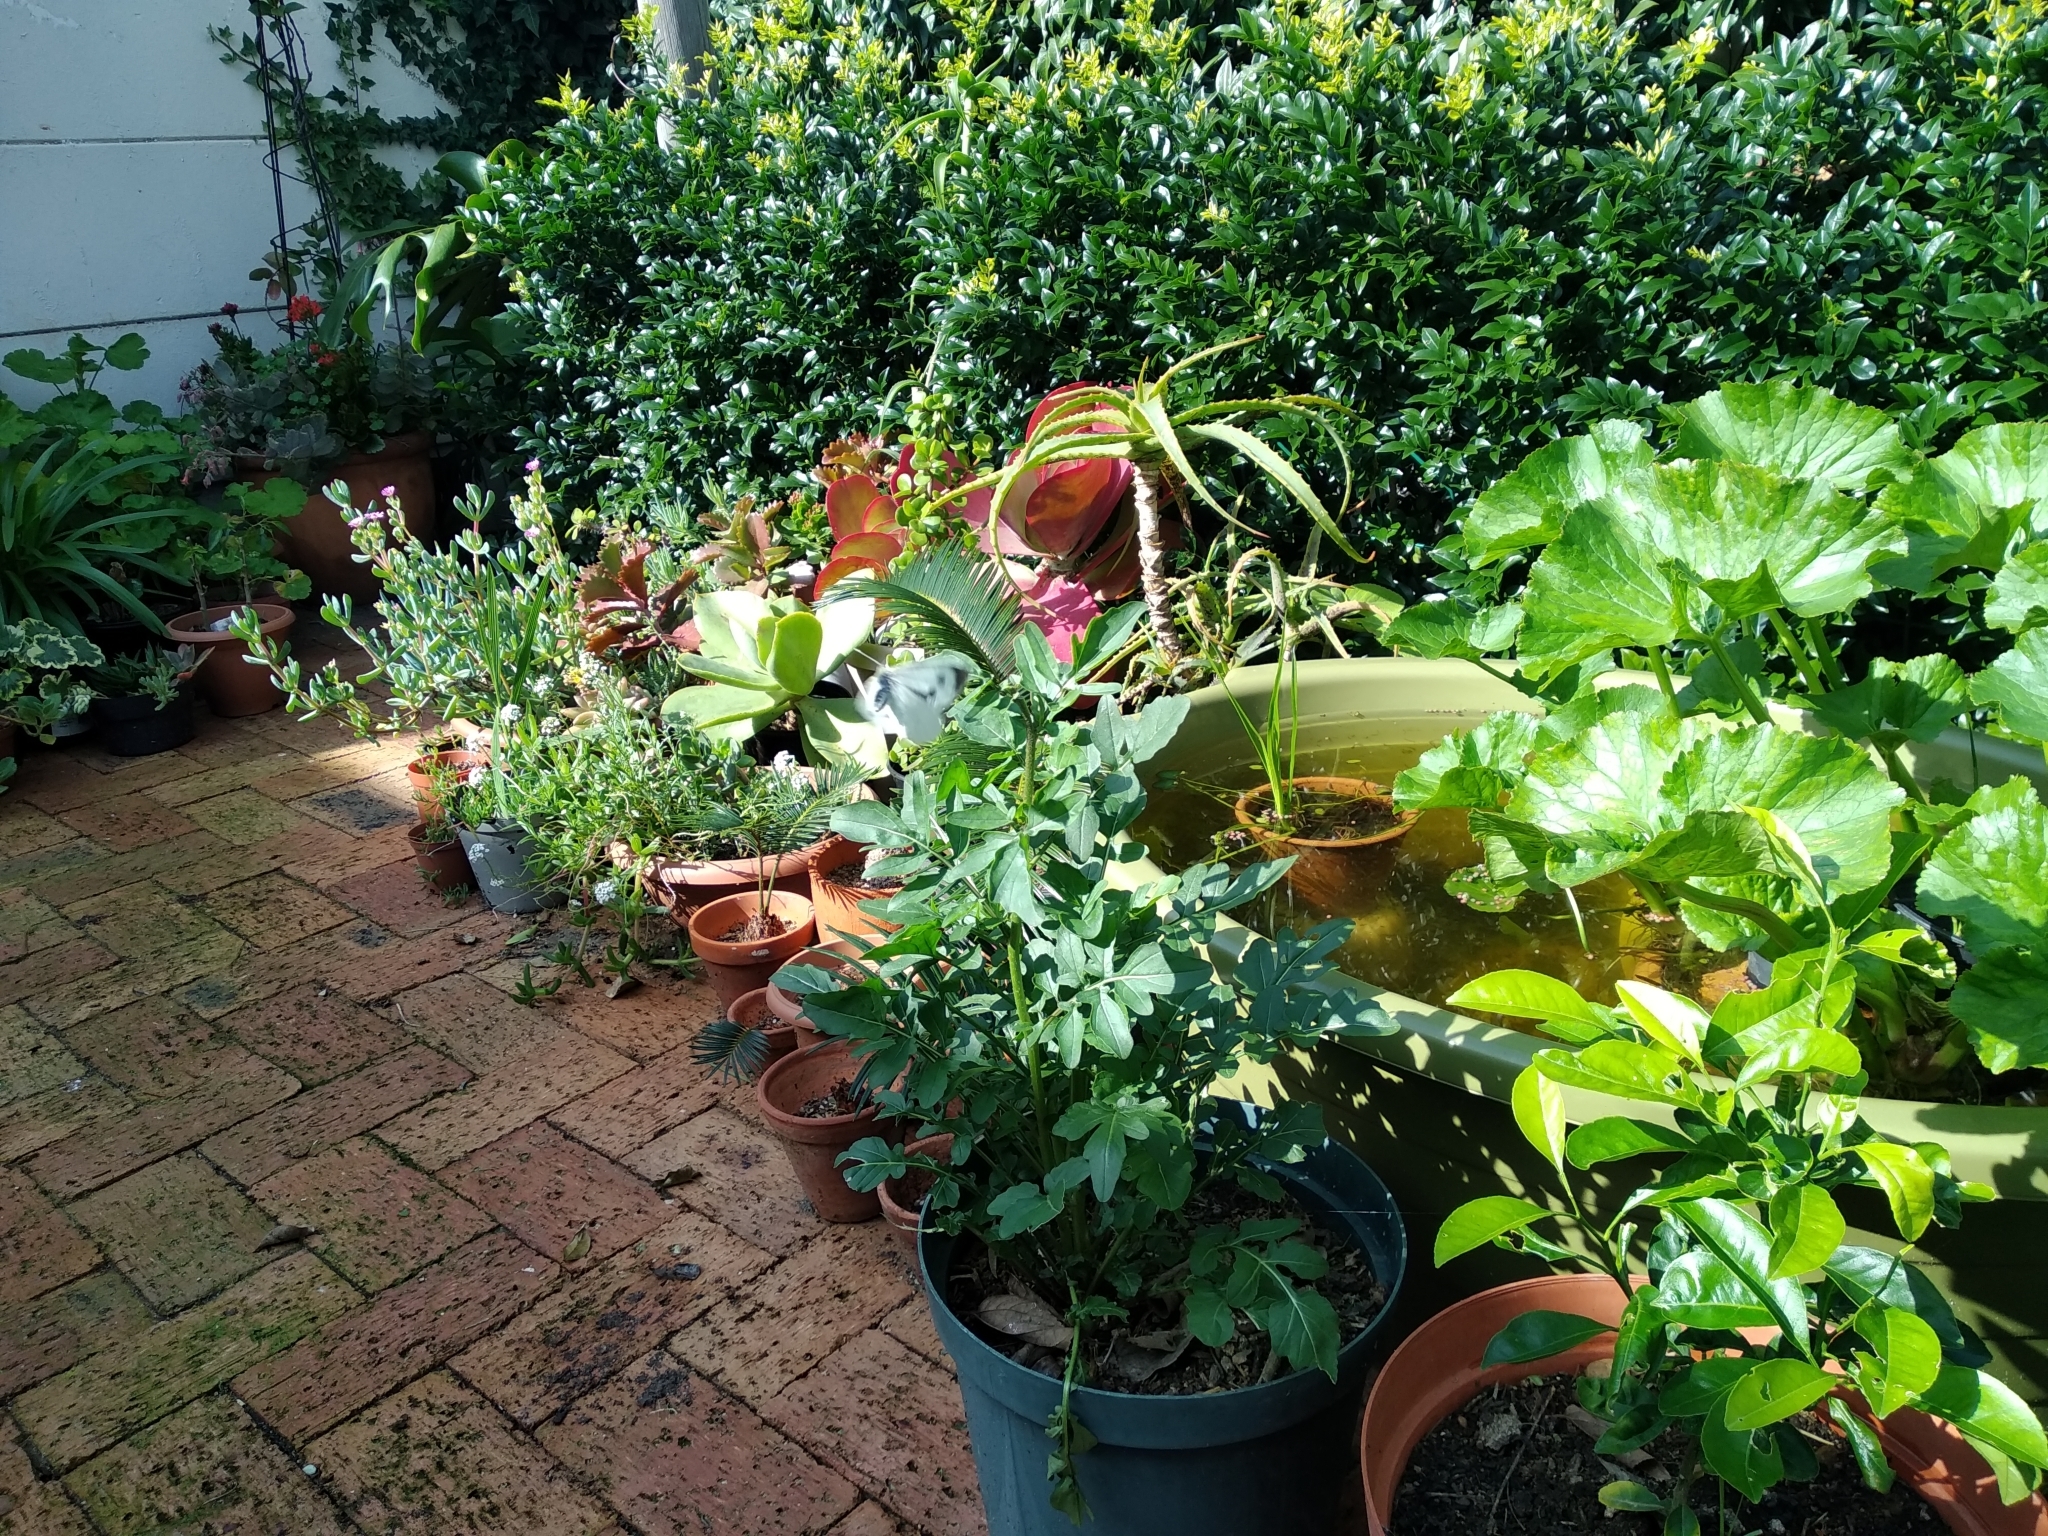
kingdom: Animalia
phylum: Arthropoda
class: Insecta
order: Lepidoptera
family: Pieridae
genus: Pieris
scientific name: Pieris brassicae
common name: Large white
